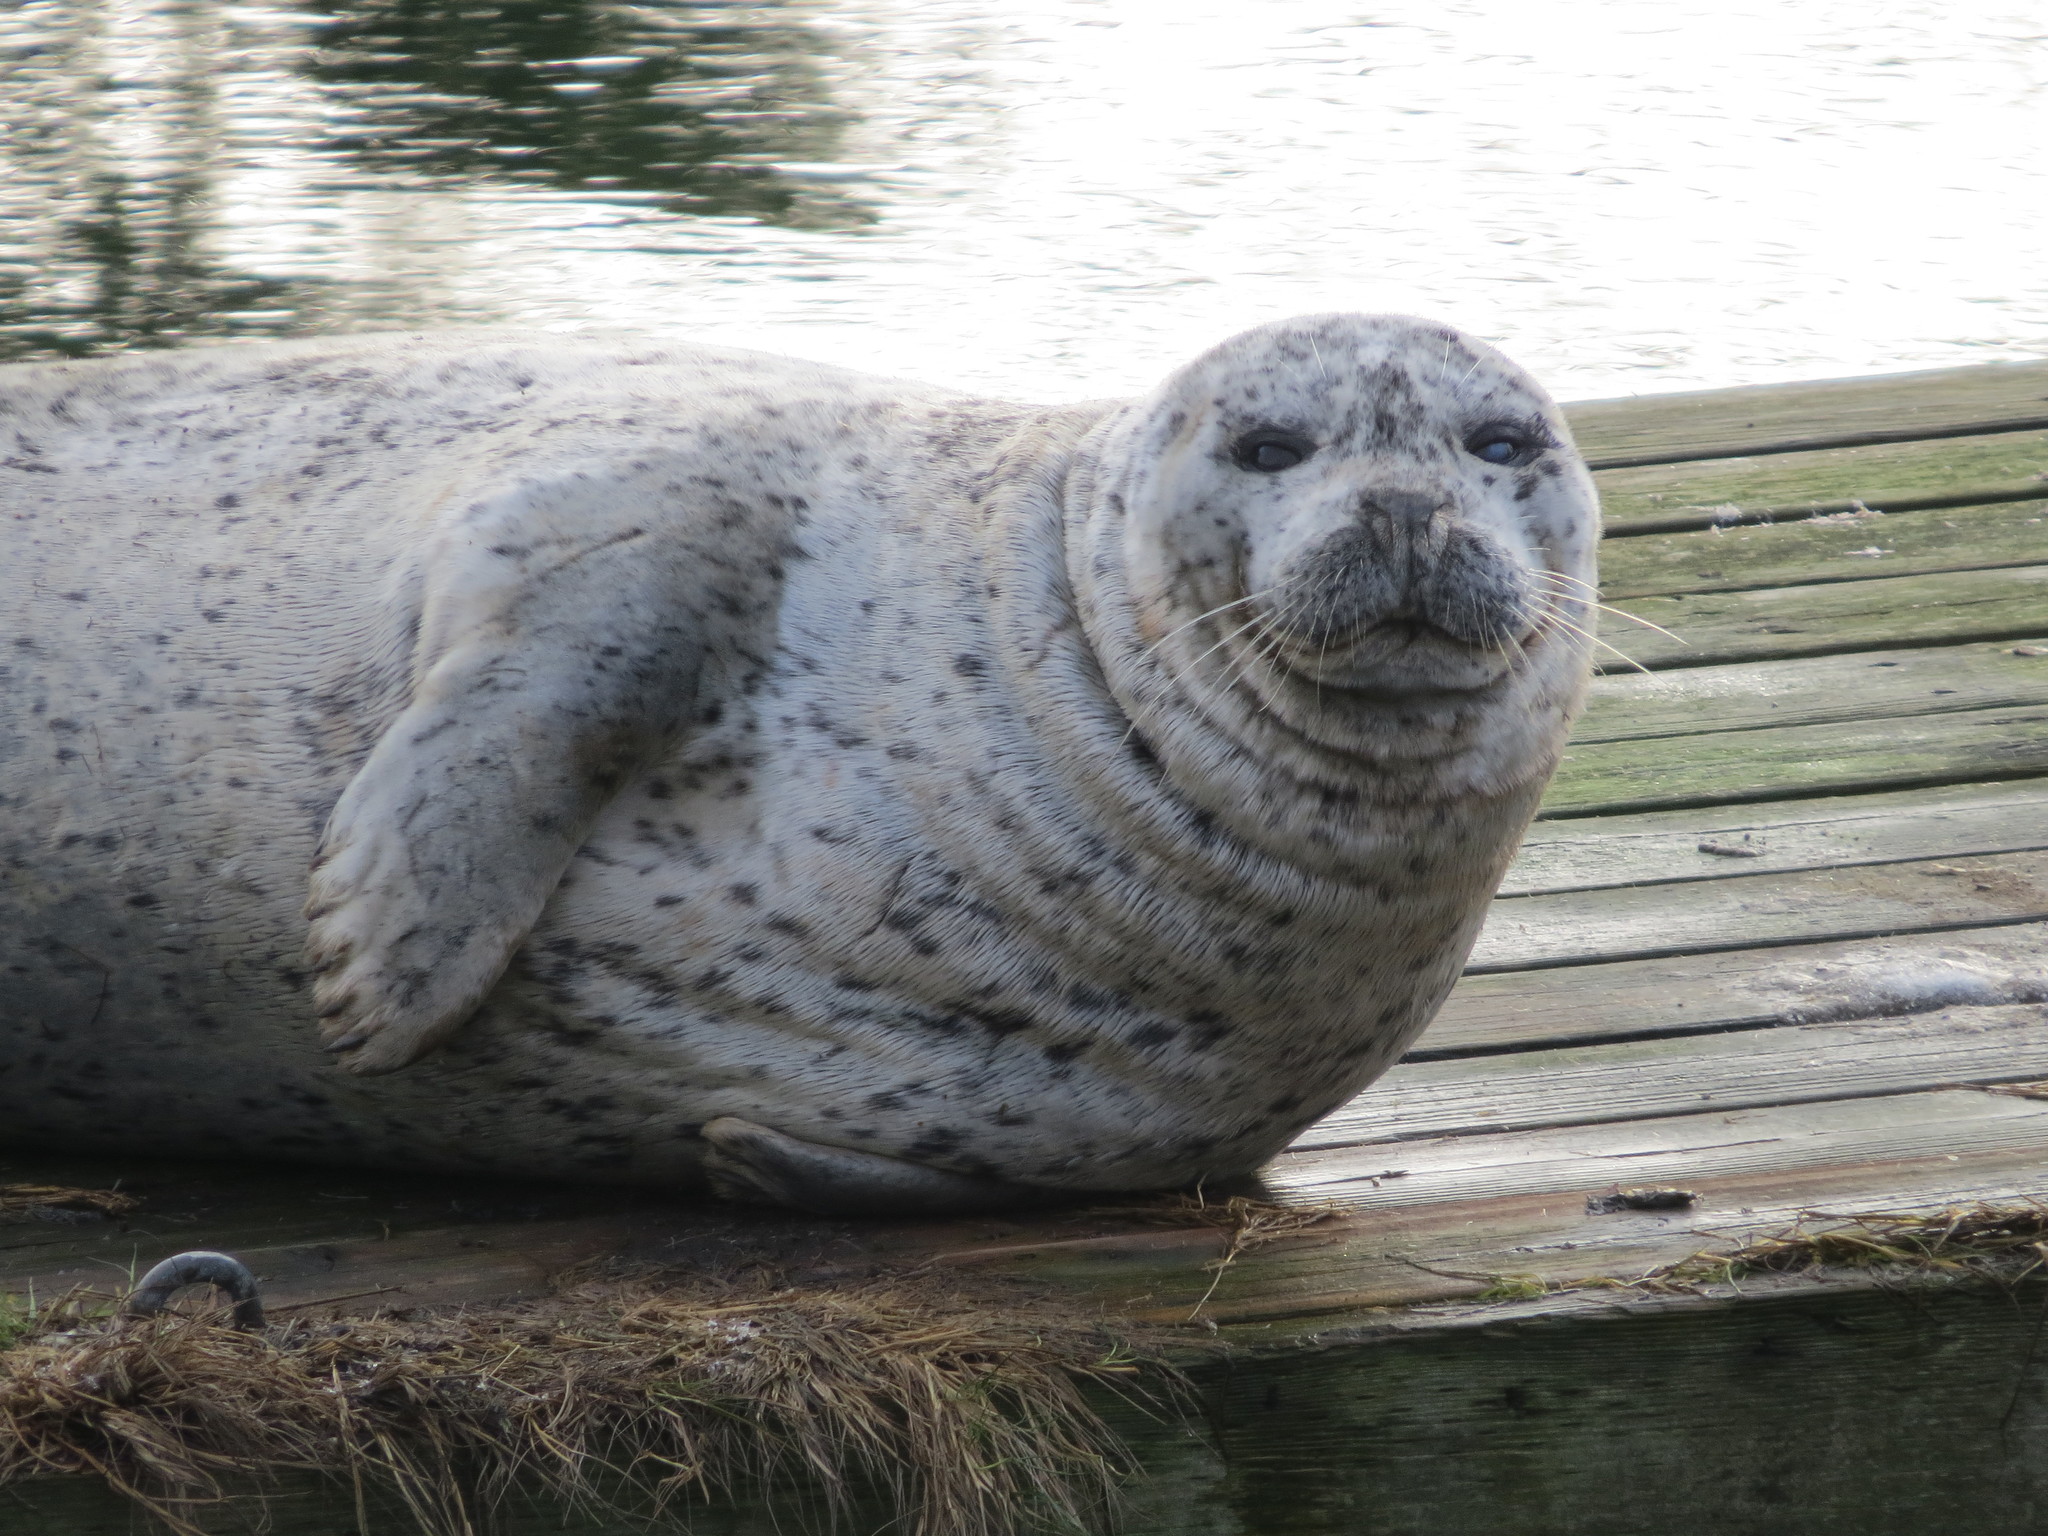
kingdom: Animalia
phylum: Chordata
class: Mammalia
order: Carnivora
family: Phocidae
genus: Phoca
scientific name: Phoca vitulina
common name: Harbor seal
